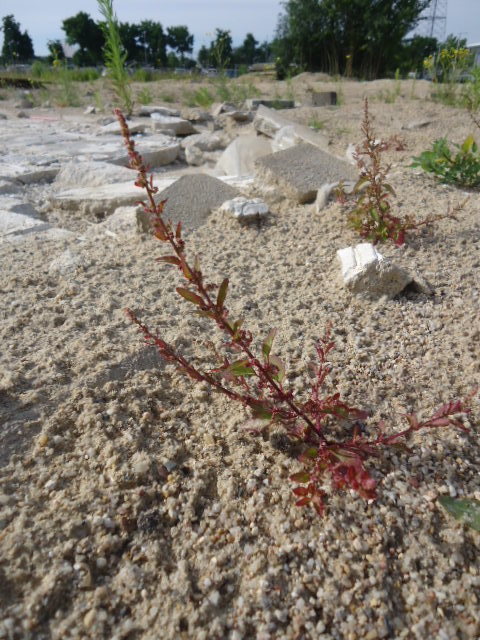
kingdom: Plantae
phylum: Tracheophyta
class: Magnoliopsida
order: Caryophyllales
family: Amaranthaceae
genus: Lipandra
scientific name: Lipandra polysperma
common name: Many-seed goosefoot
